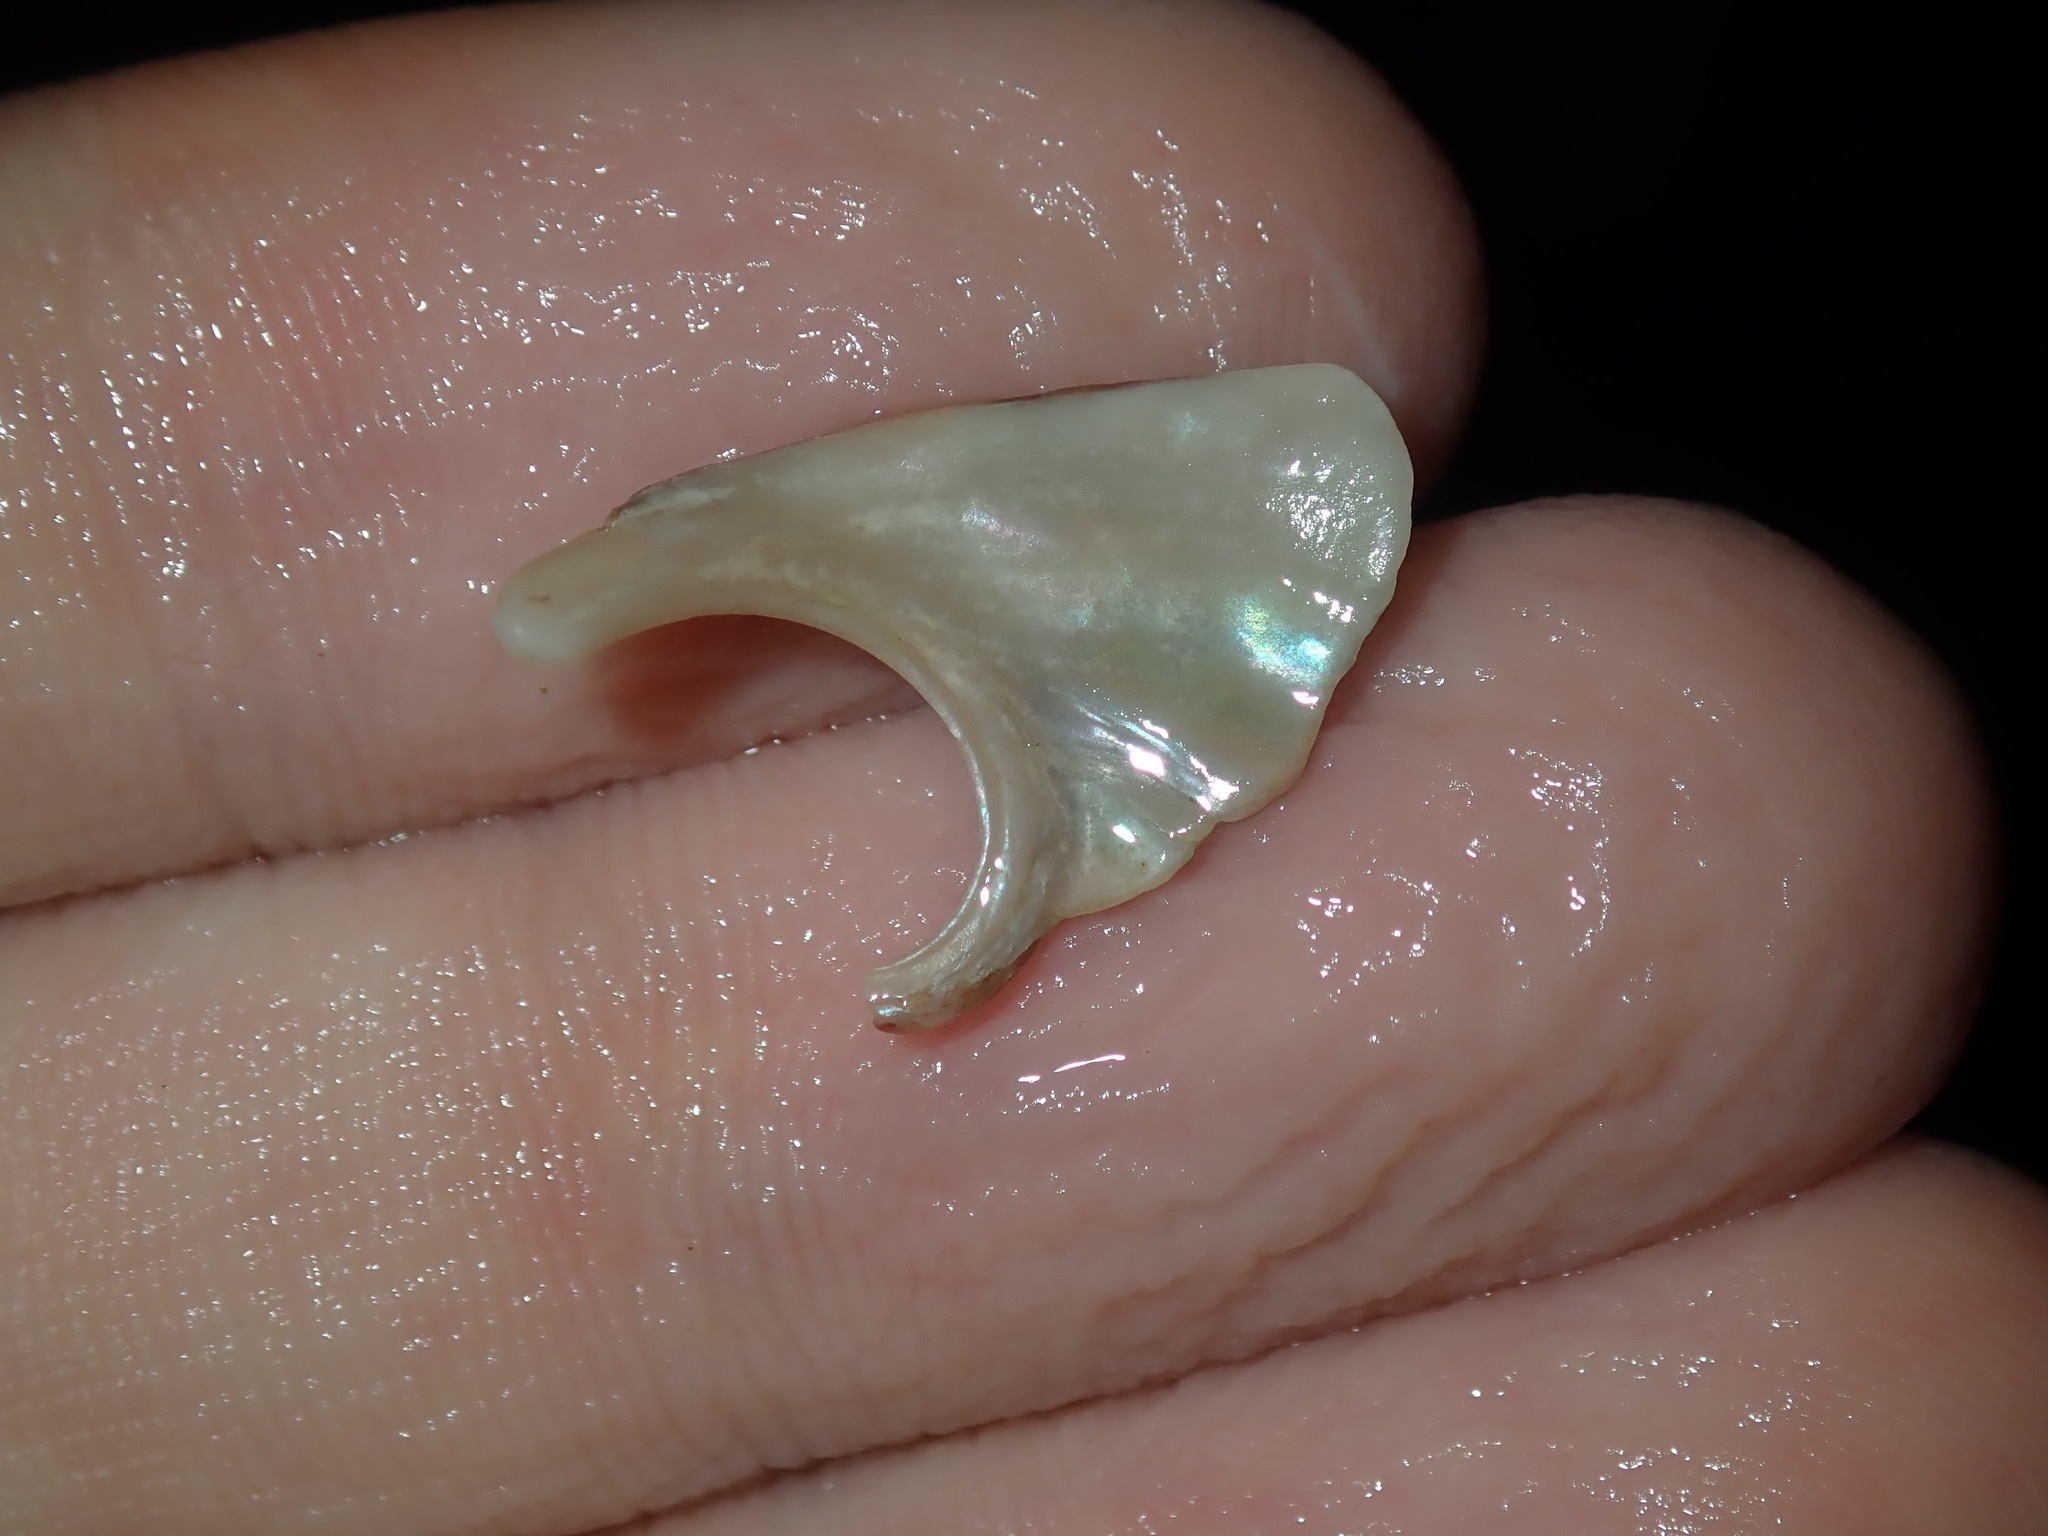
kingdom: Animalia
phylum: Mollusca
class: Gastropoda
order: Lepetellida
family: Haliotidae
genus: Haliotis
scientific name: Haliotis coccoradiata
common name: Reddish-rayed abalone
